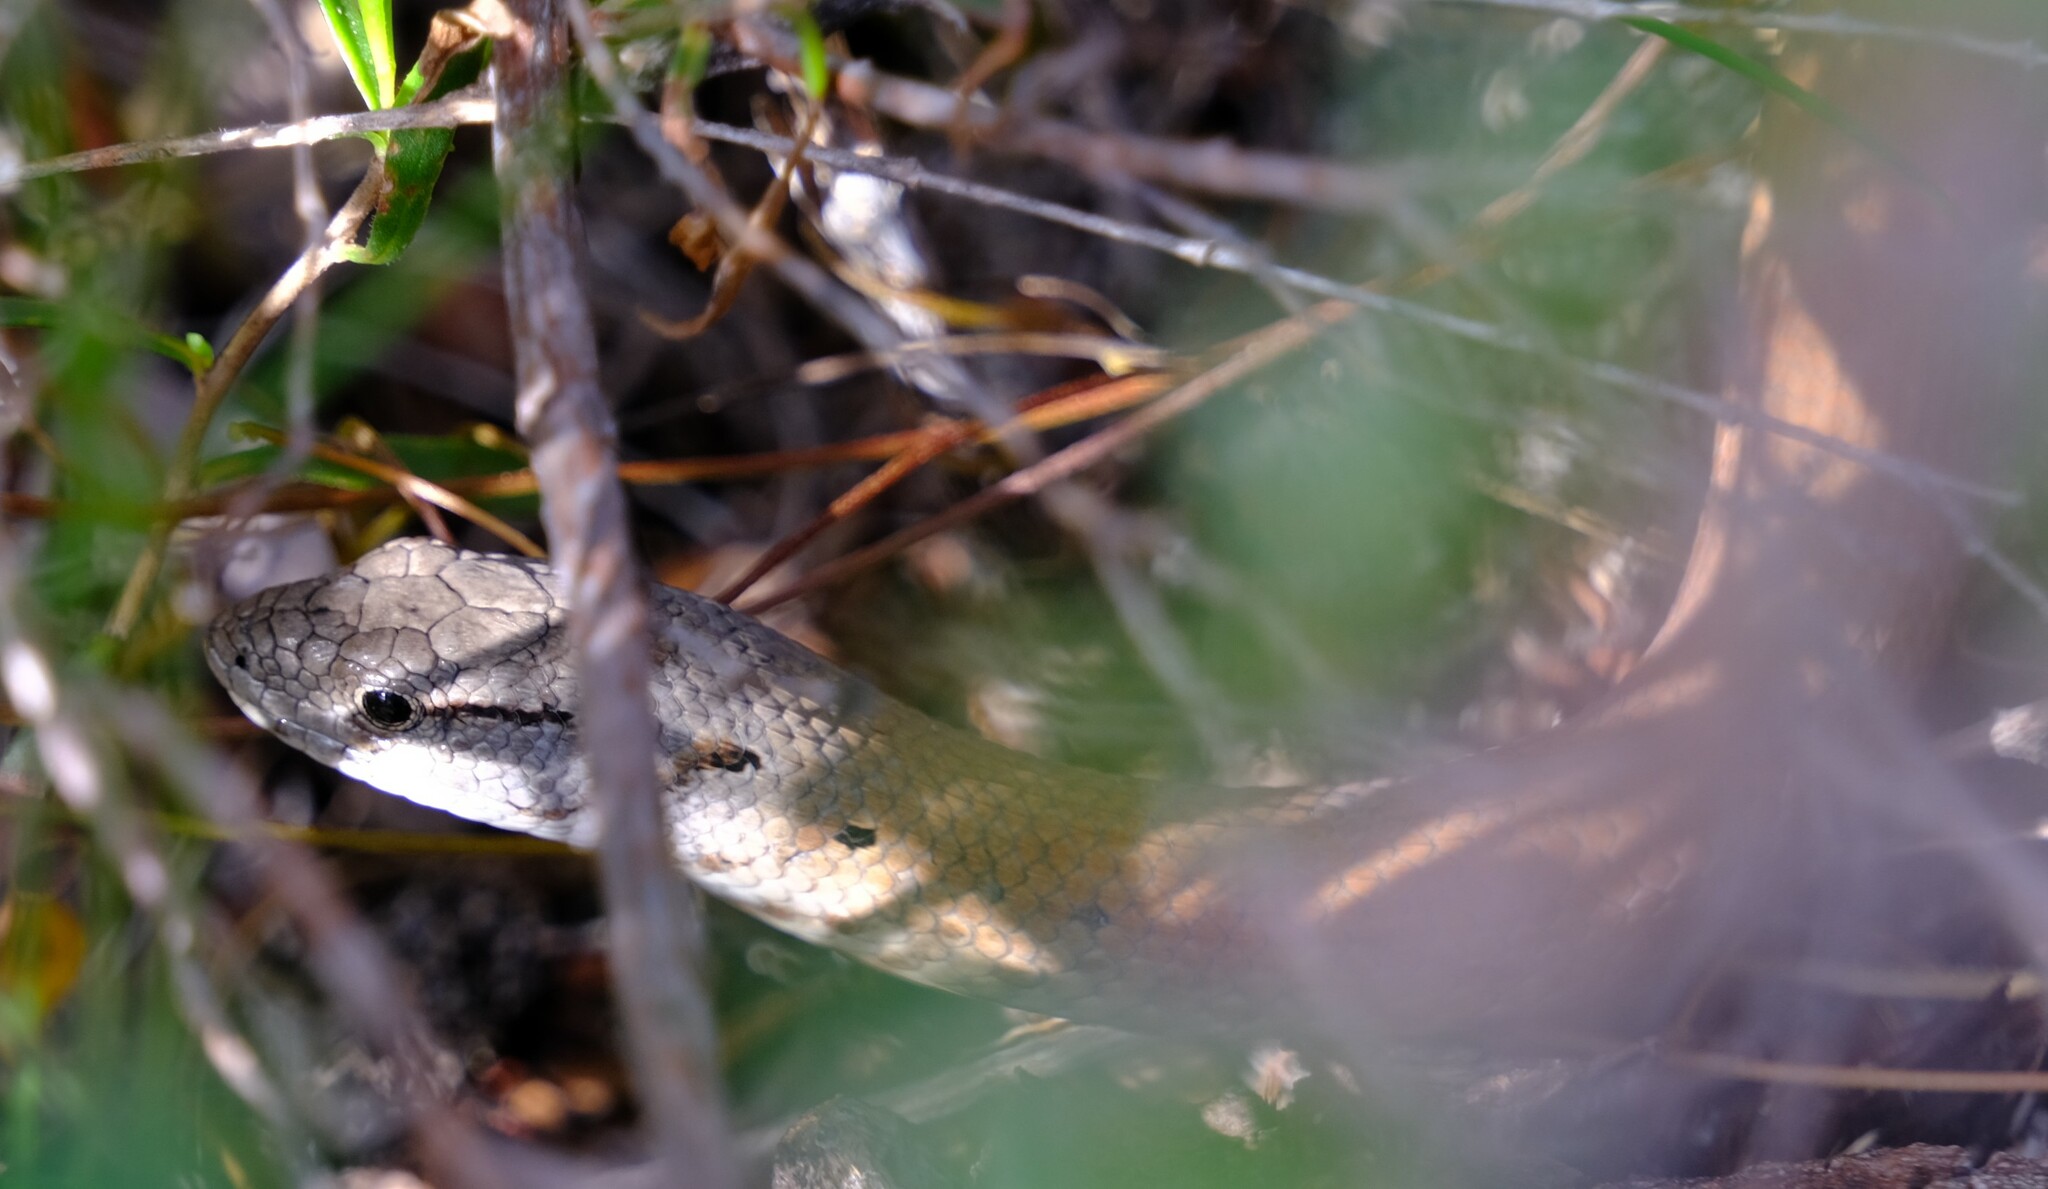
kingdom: Animalia
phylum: Chordata
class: Squamata
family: Pygopodidae
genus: Pygopus
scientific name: Pygopus lepidopodus
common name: Southern scaly-foot
